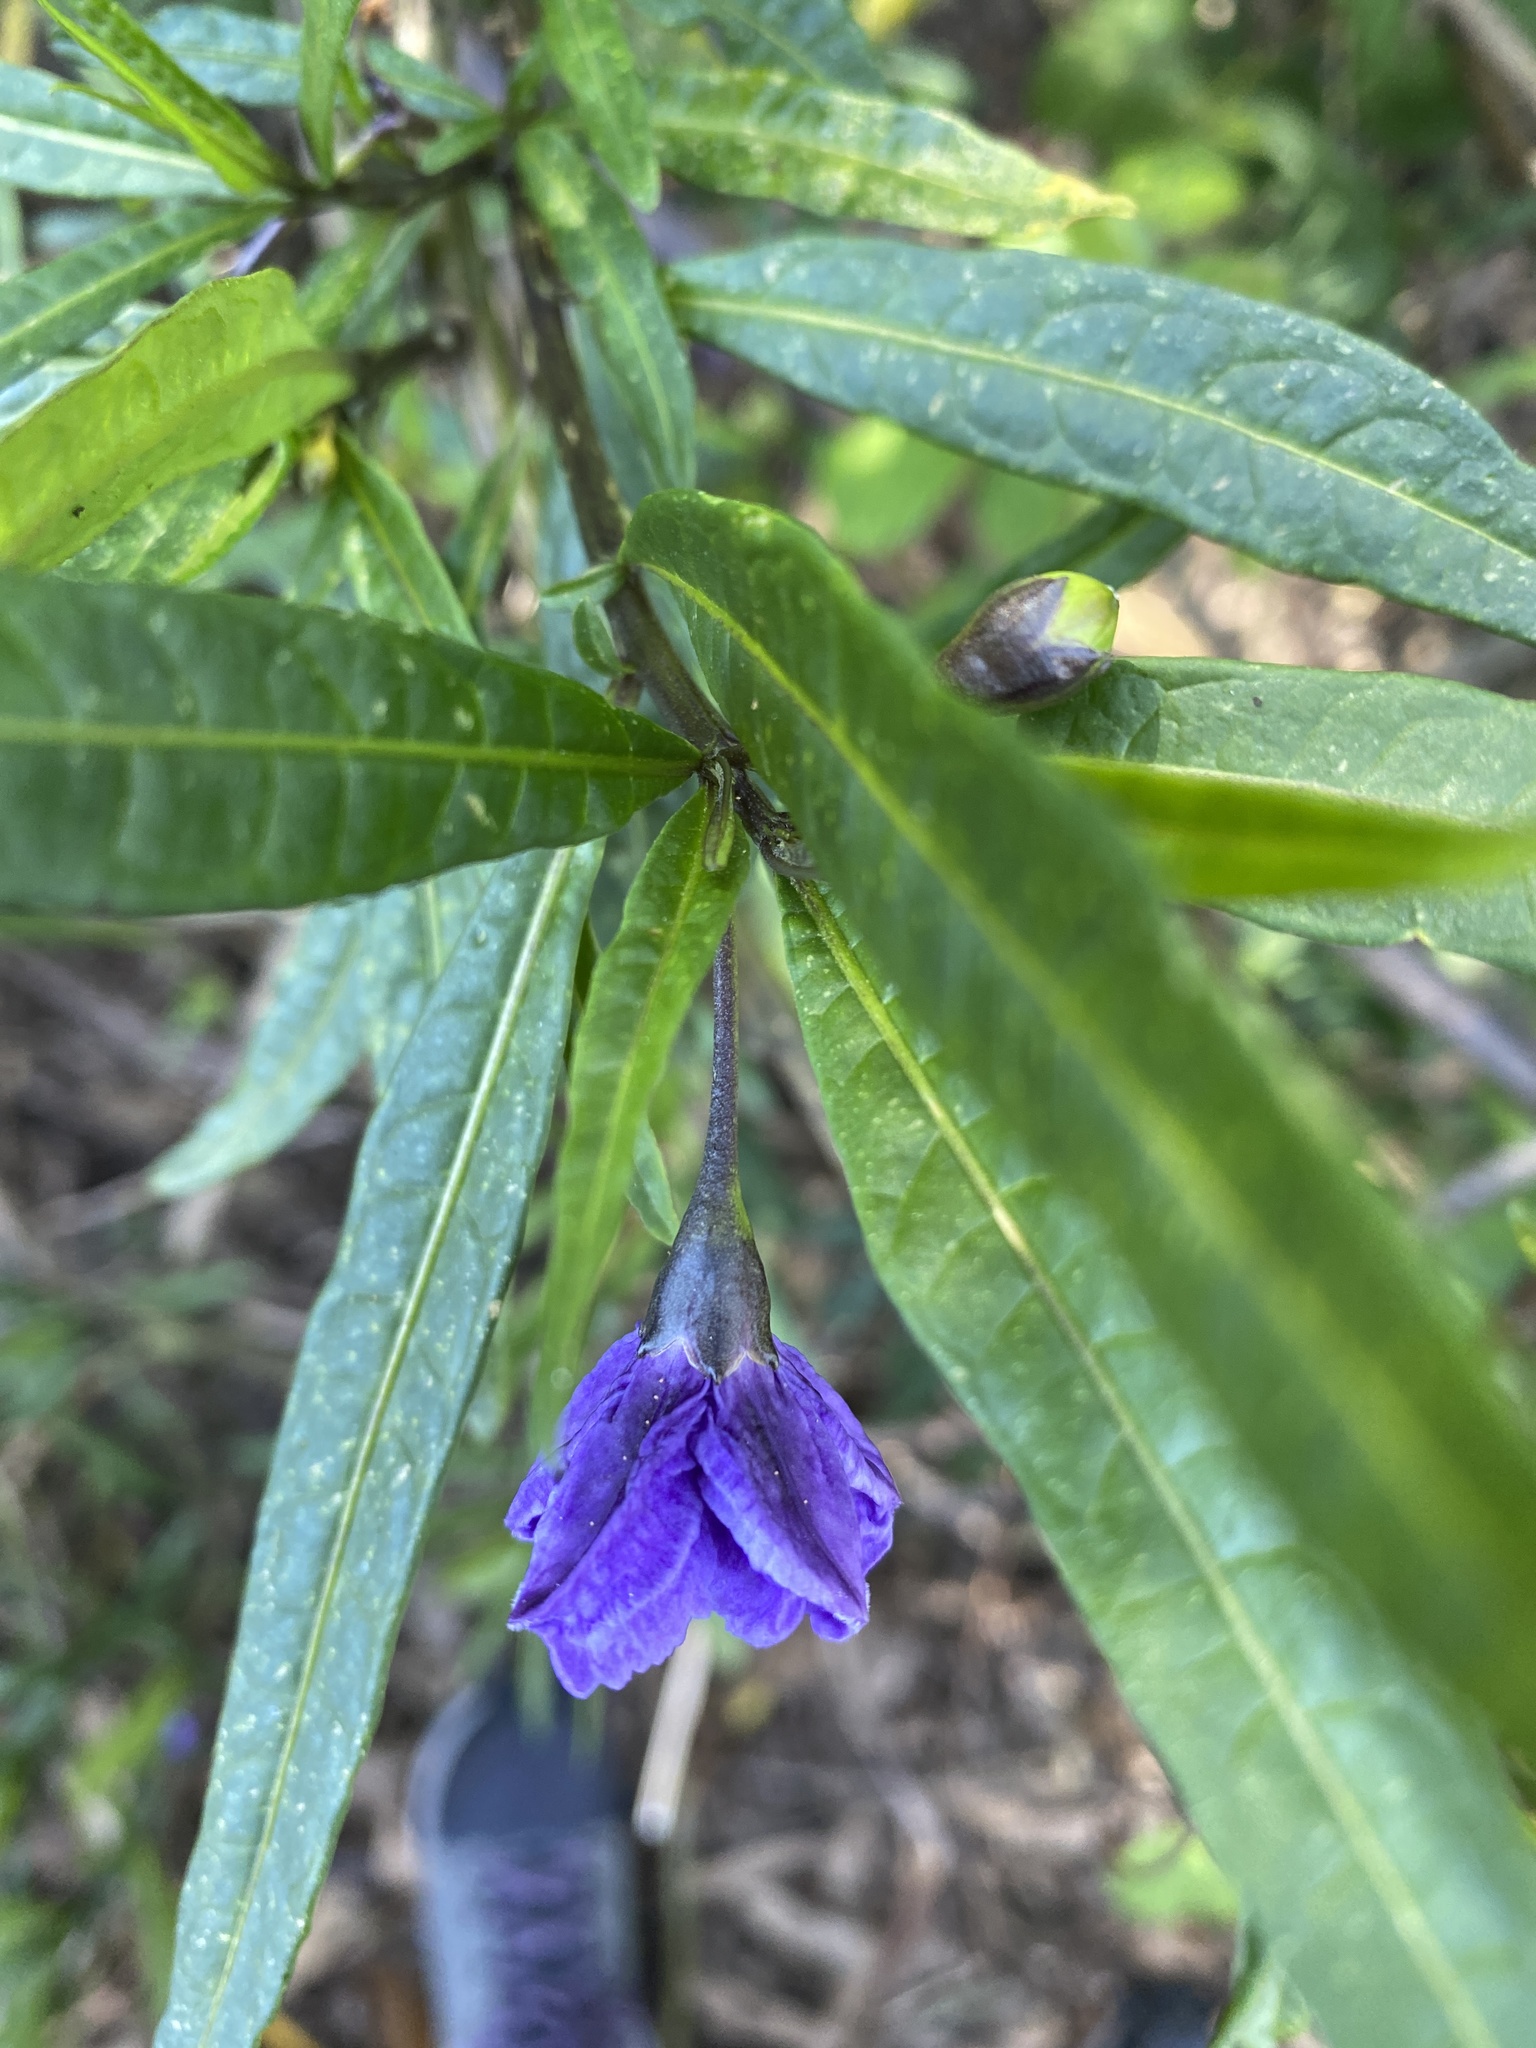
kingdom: Plantae
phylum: Tracheophyta
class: Magnoliopsida
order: Solanales
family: Solanaceae
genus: Solanum
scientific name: Solanum laciniatum
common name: Kangaroo-apple
